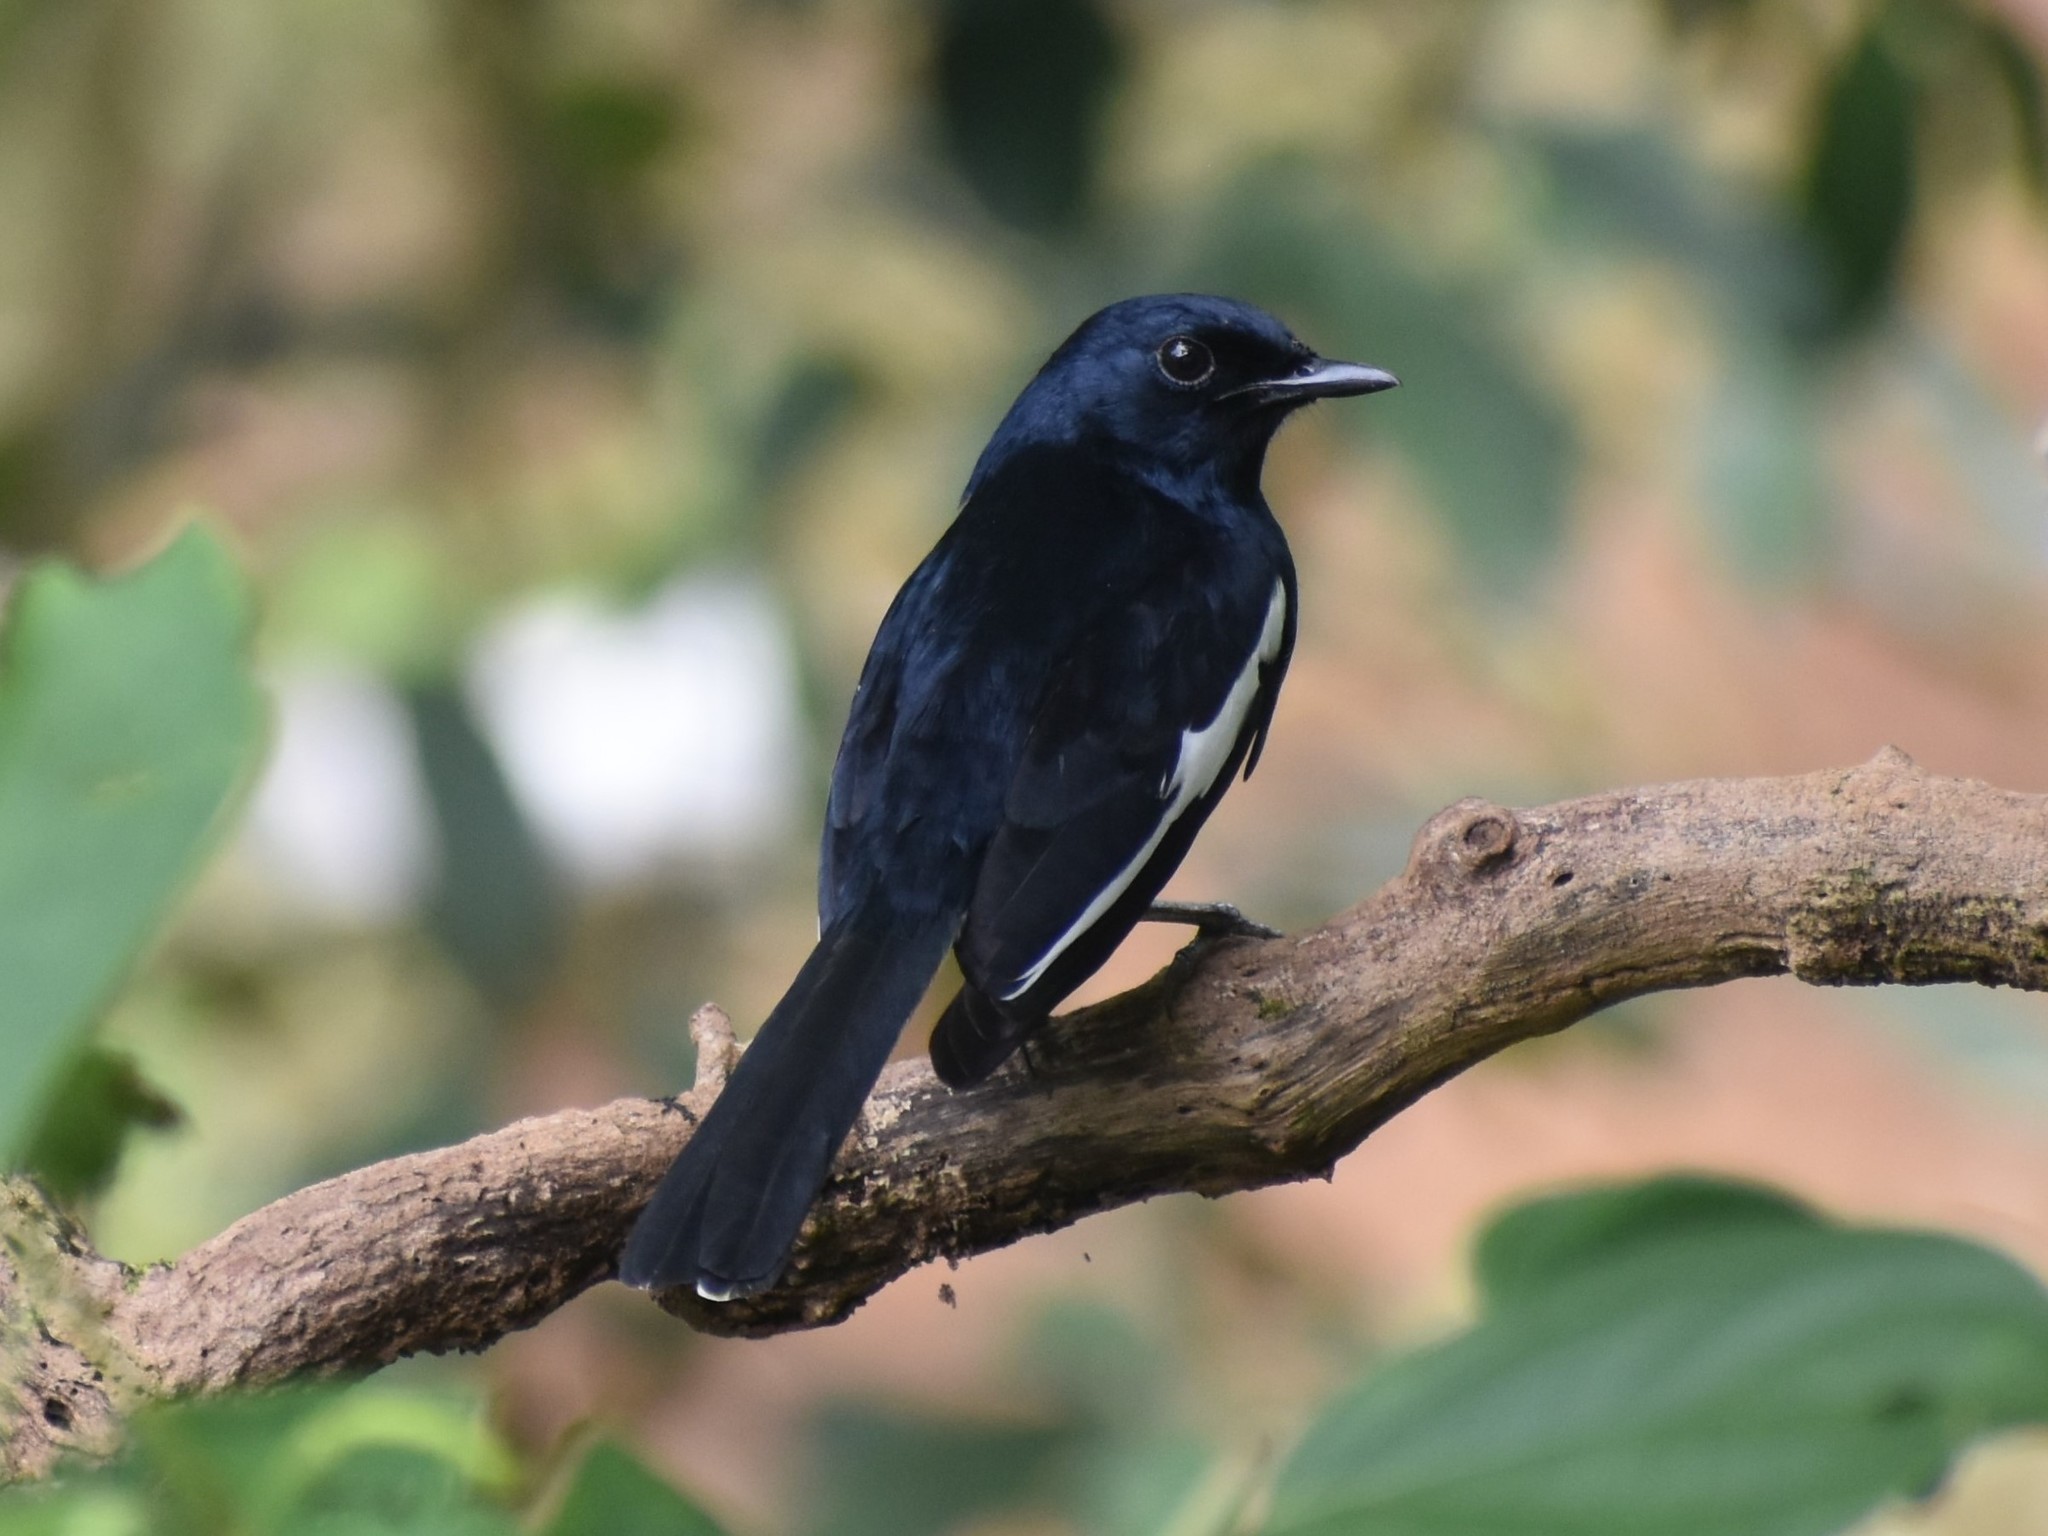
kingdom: Animalia
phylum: Chordata
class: Aves
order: Passeriformes
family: Muscicapidae
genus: Copsychus
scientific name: Copsychus saularis
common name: Oriental magpie-robin
